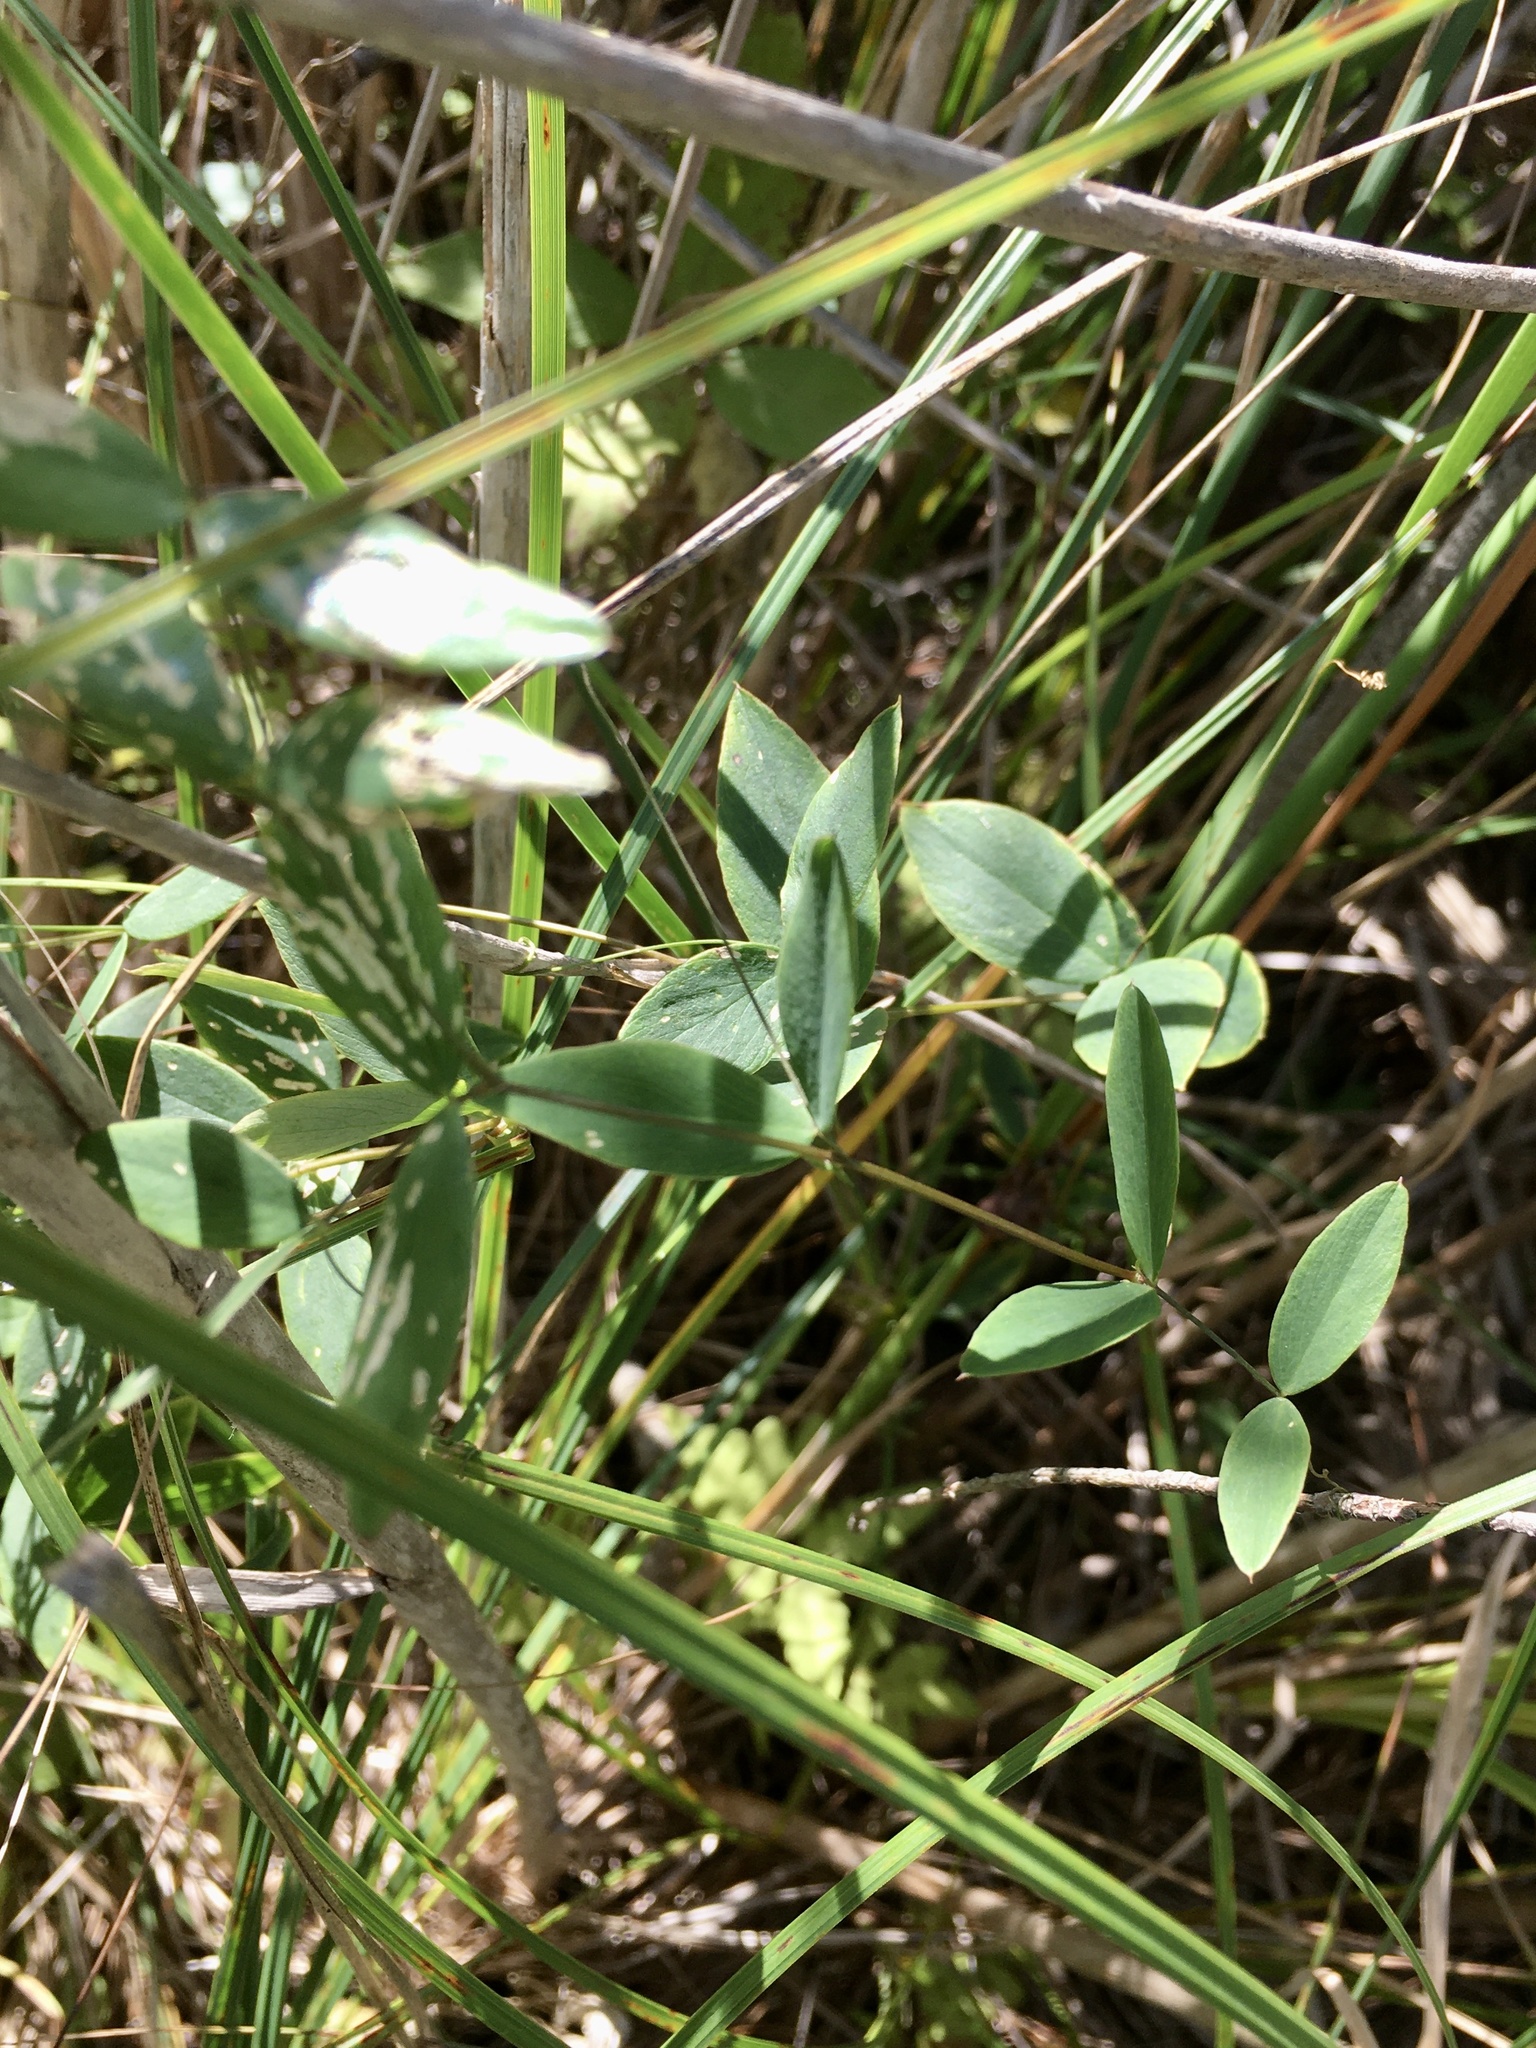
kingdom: Plantae
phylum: Tracheophyta
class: Magnoliopsida
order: Fabales
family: Fabaceae
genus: Lathyrus
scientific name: Lathyrus palustris
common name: Marsh pea
